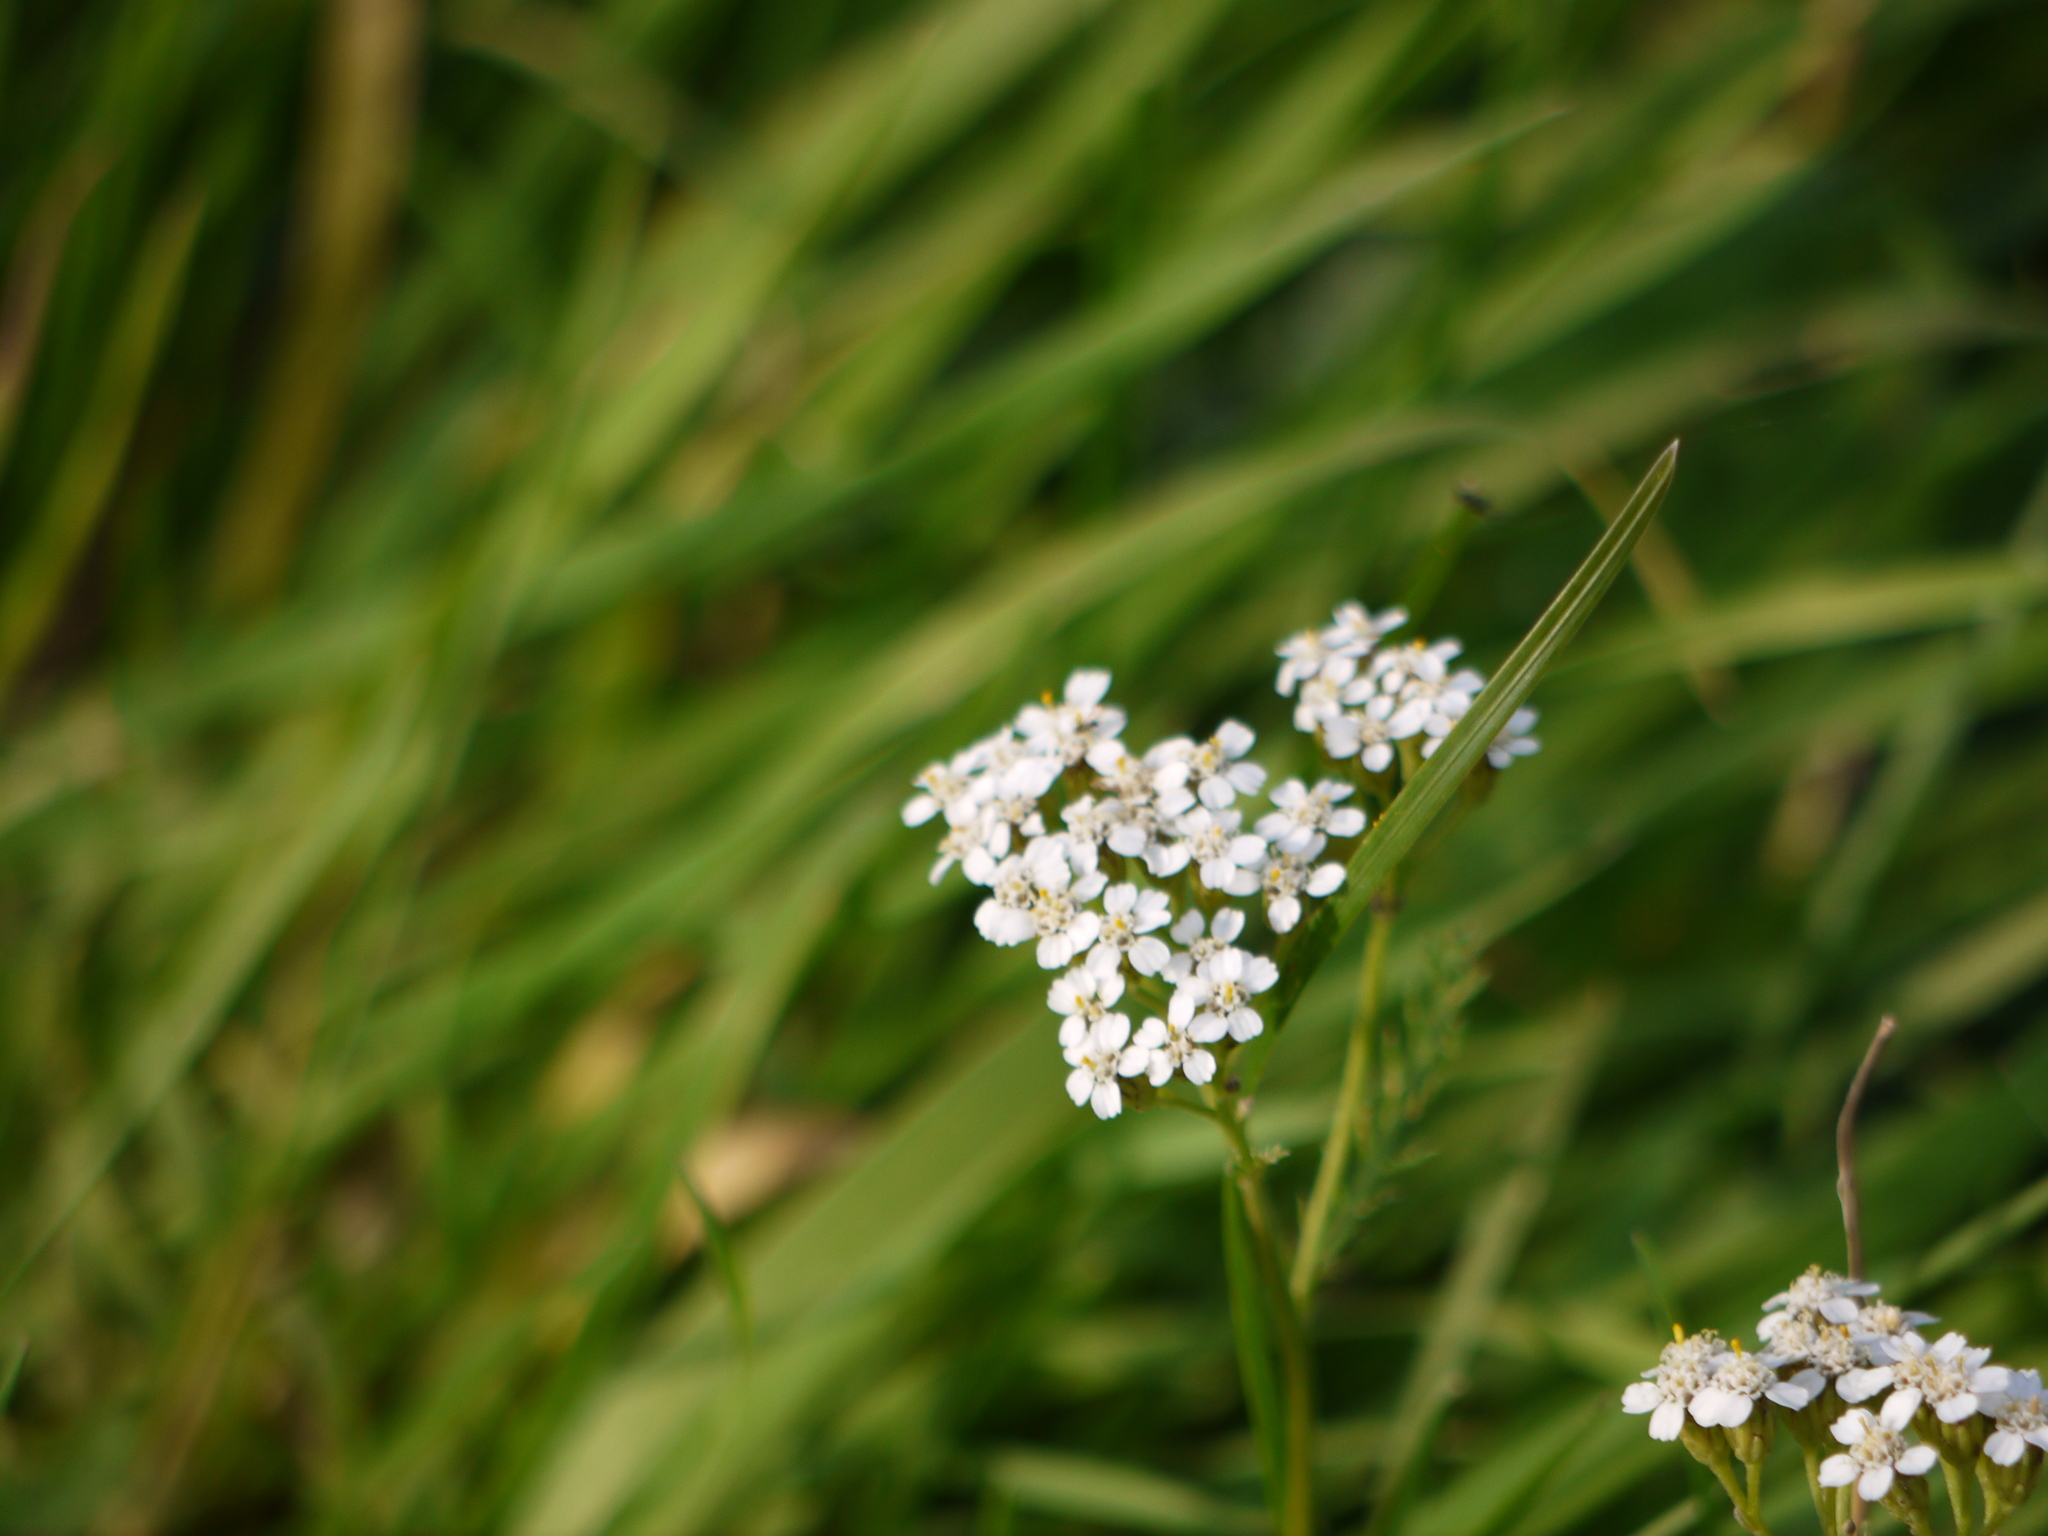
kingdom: Plantae
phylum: Tracheophyta
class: Magnoliopsida
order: Asterales
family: Asteraceae
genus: Achillea
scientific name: Achillea millefolium
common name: Yarrow
